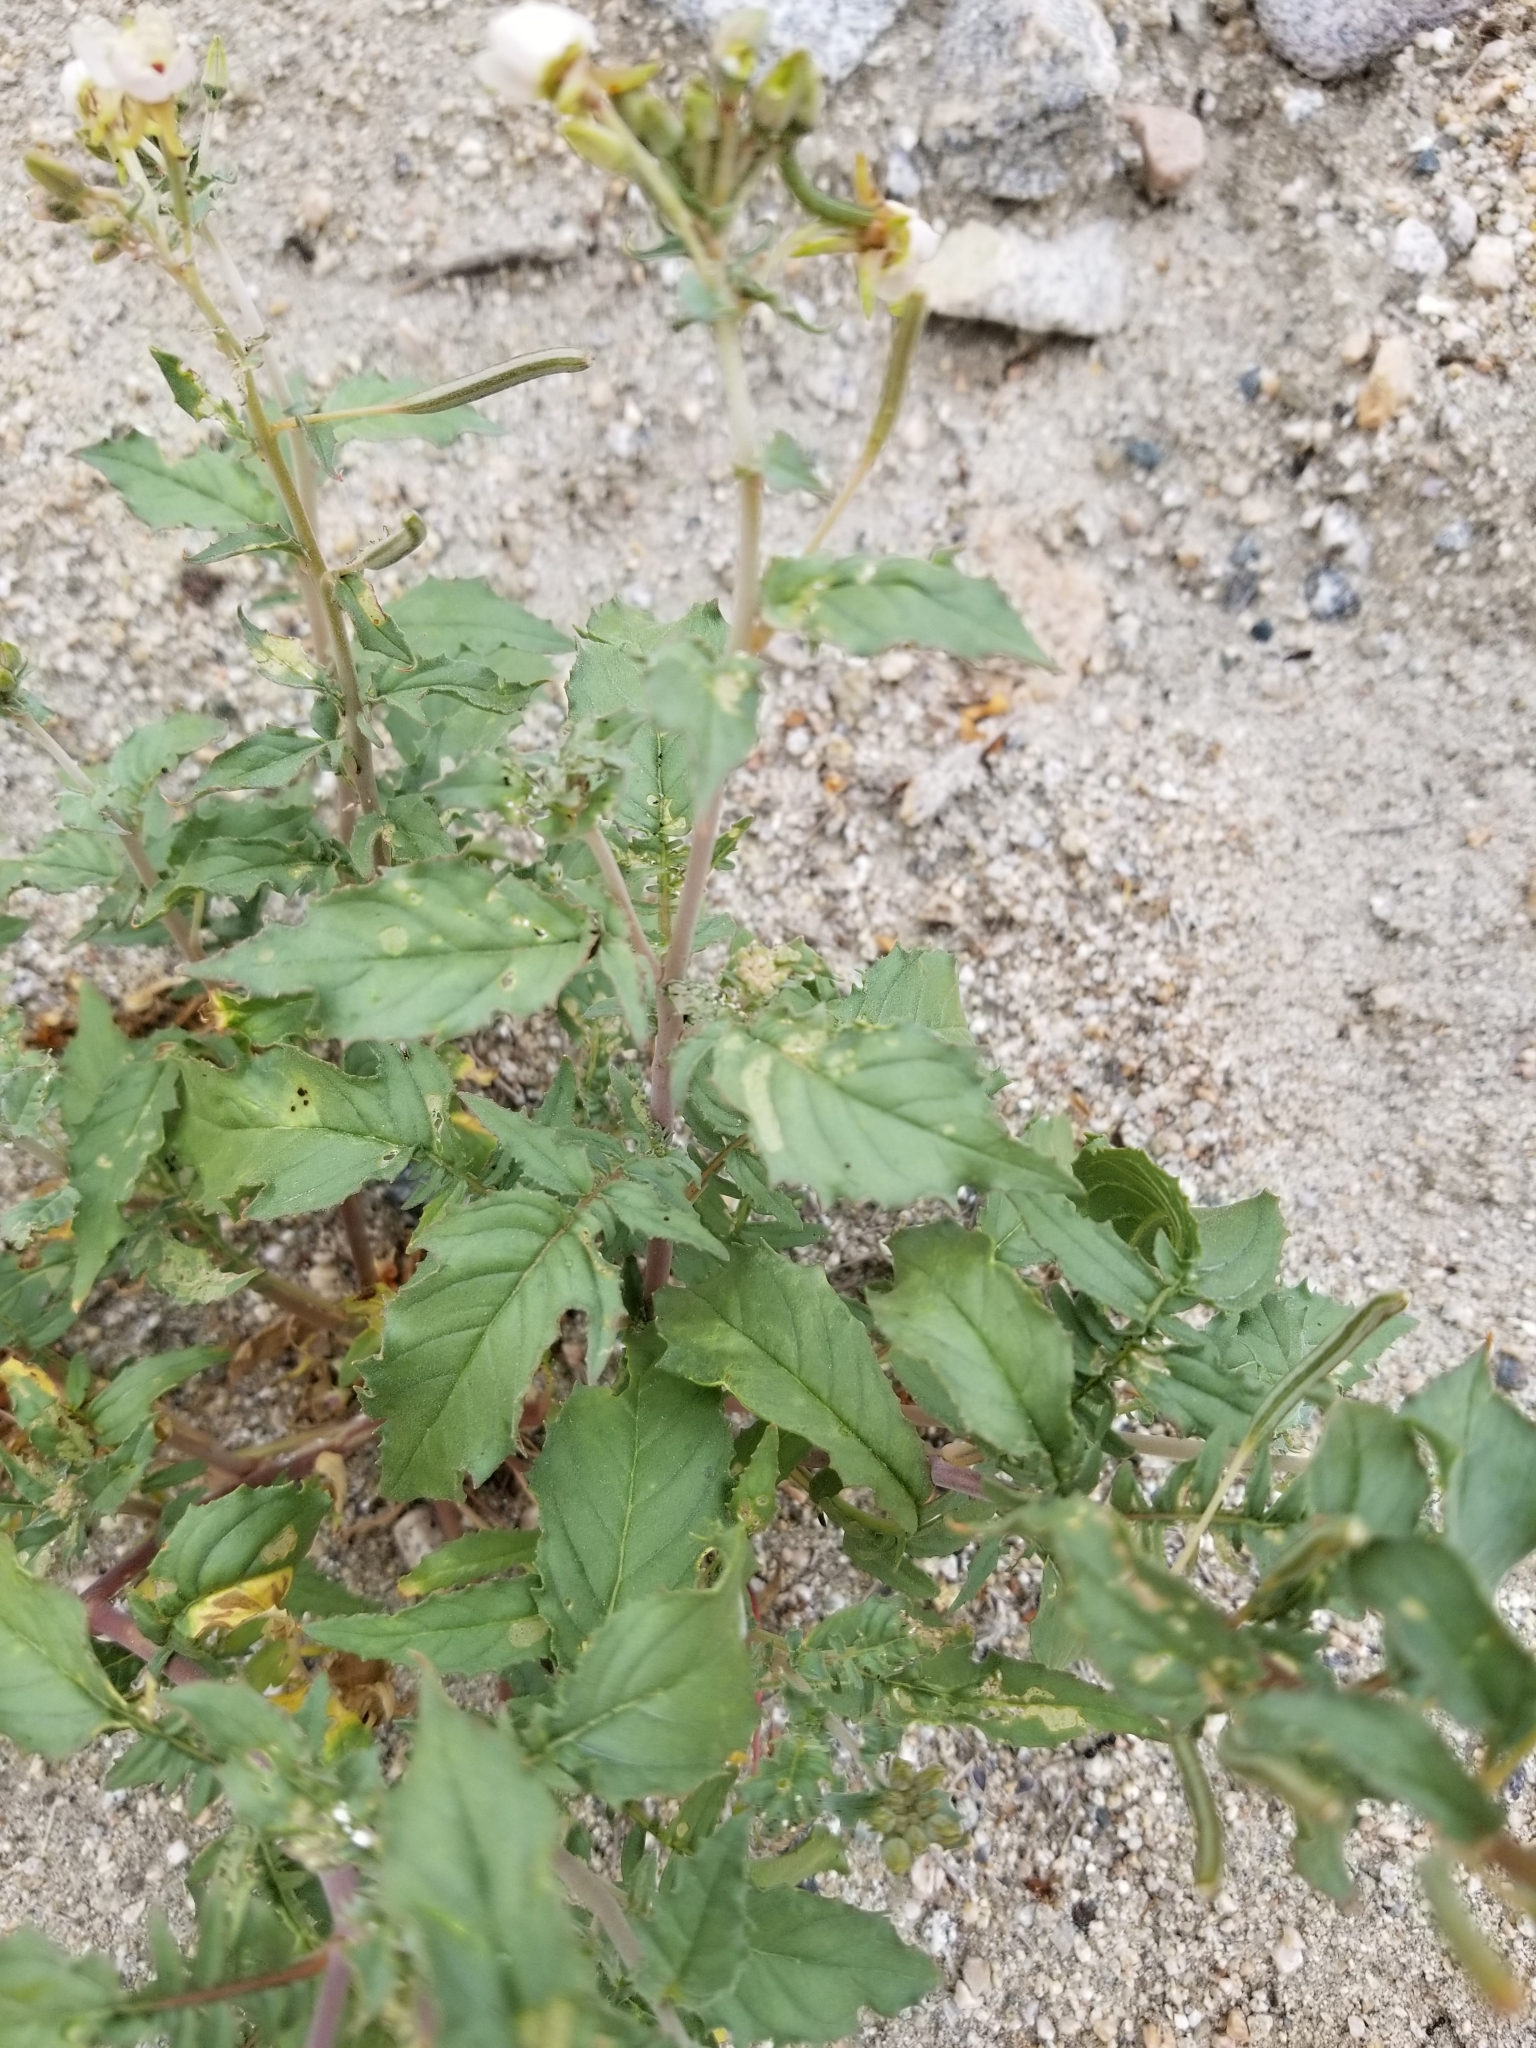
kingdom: Plantae
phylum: Tracheophyta
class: Magnoliopsida
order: Myrtales
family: Onagraceae
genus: Chylismia
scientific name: Chylismia claviformis
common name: Browneyes
